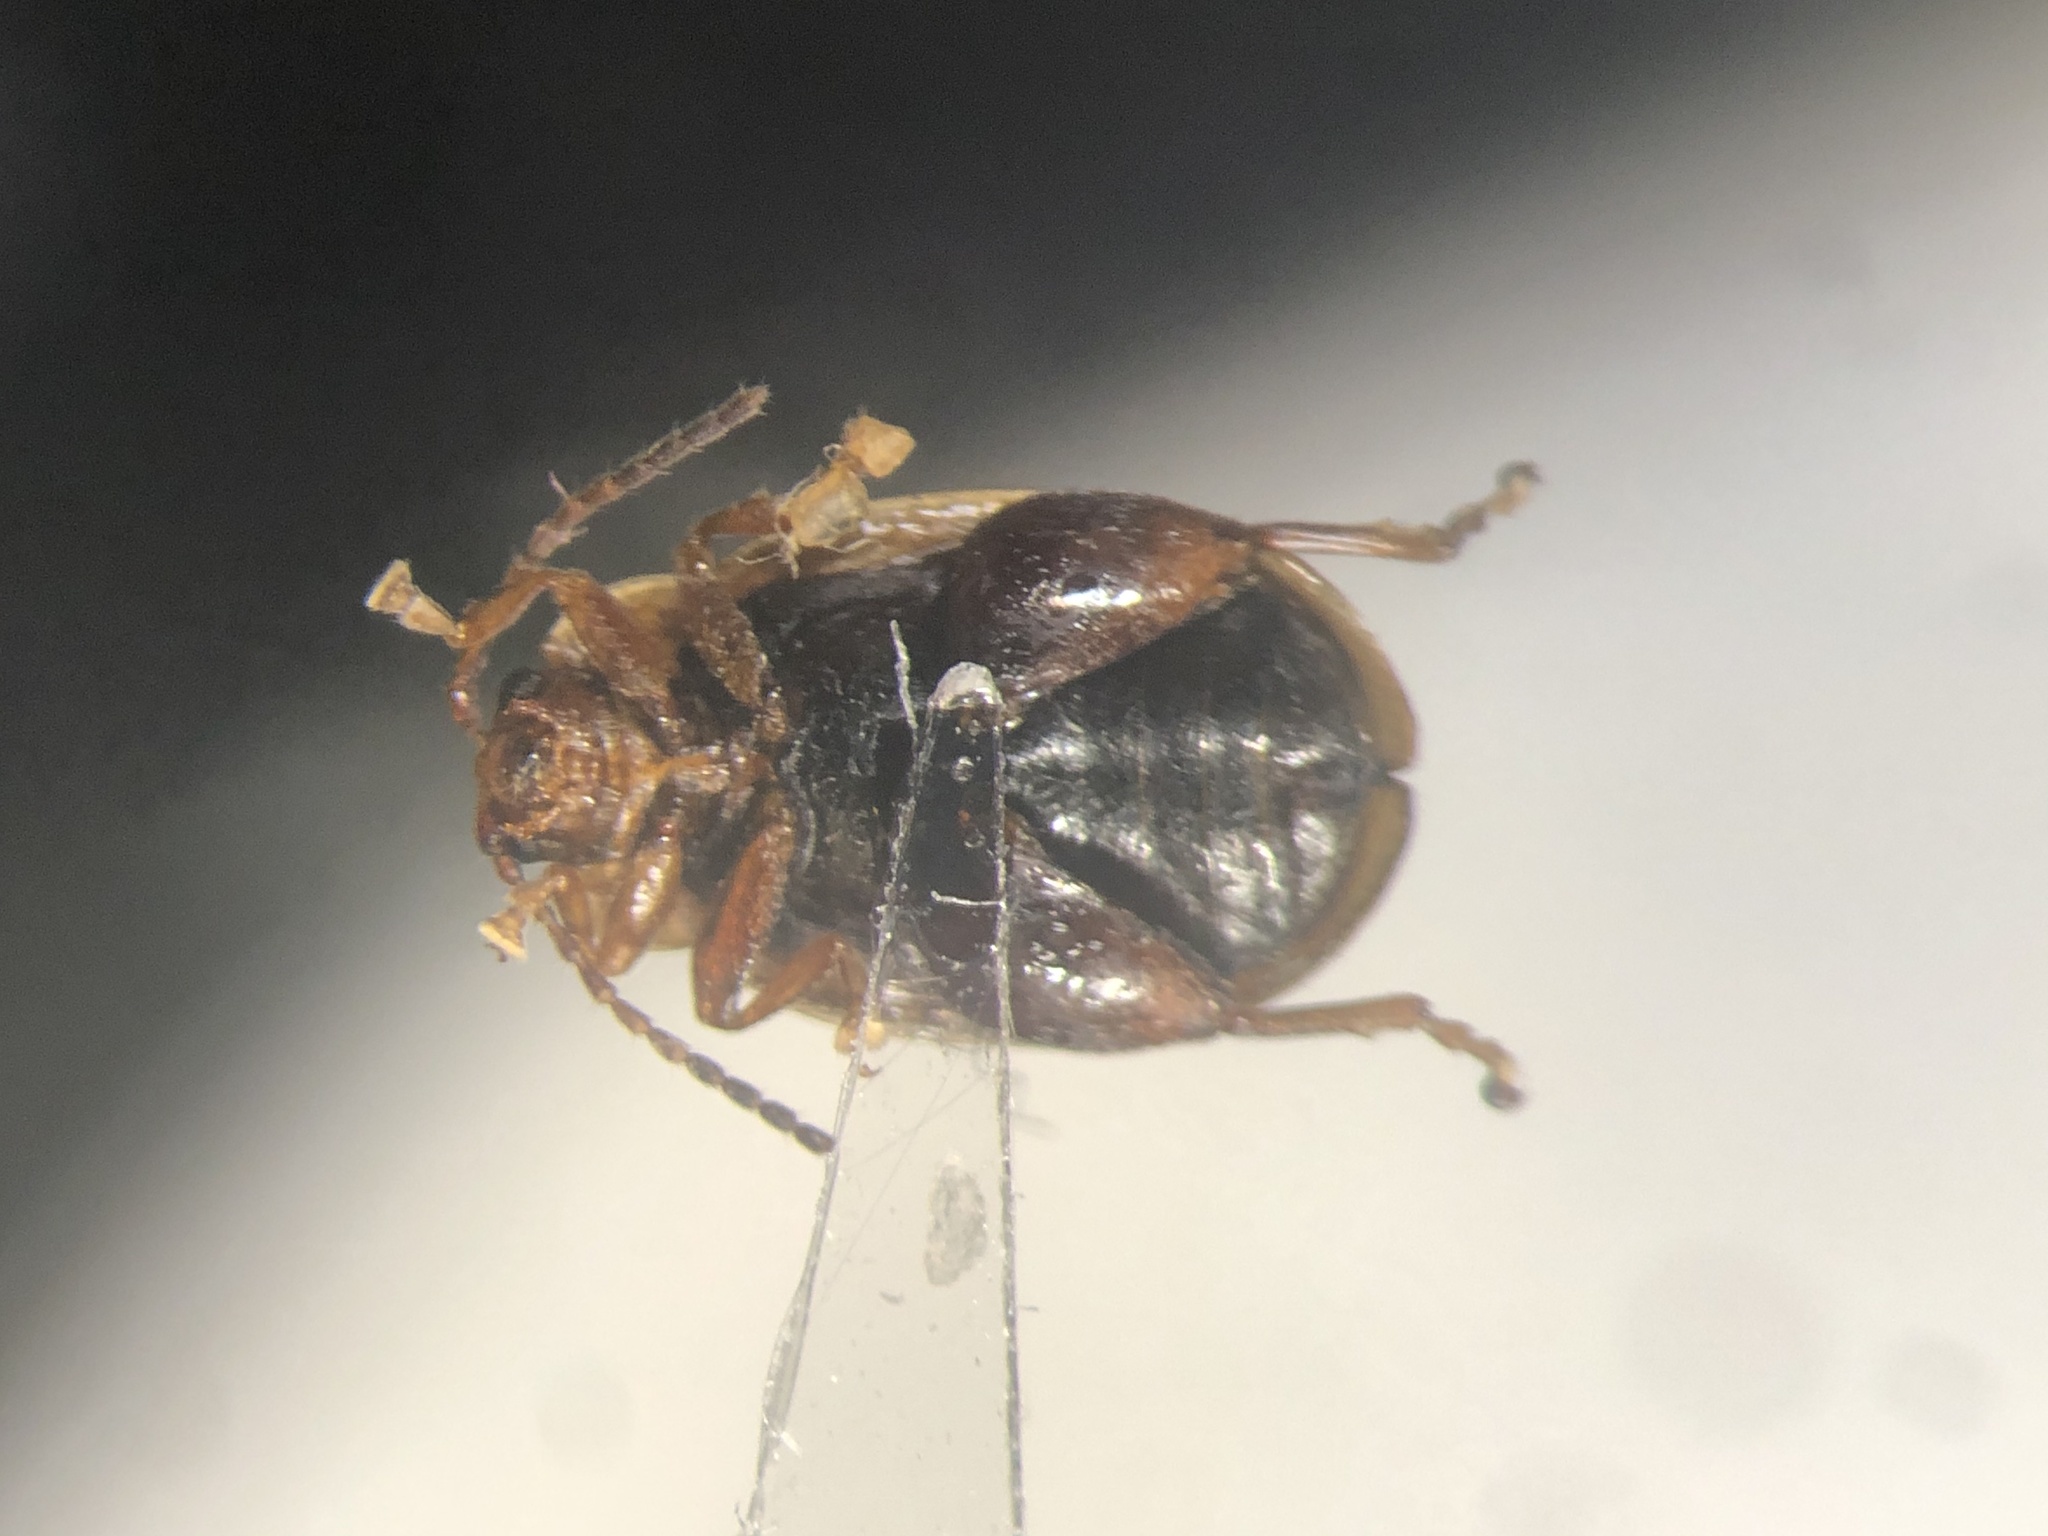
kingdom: Animalia
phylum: Arthropoda
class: Insecta
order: Coleoptera
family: Chrysomelidae
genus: Capraita
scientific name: Capraita circumdata
